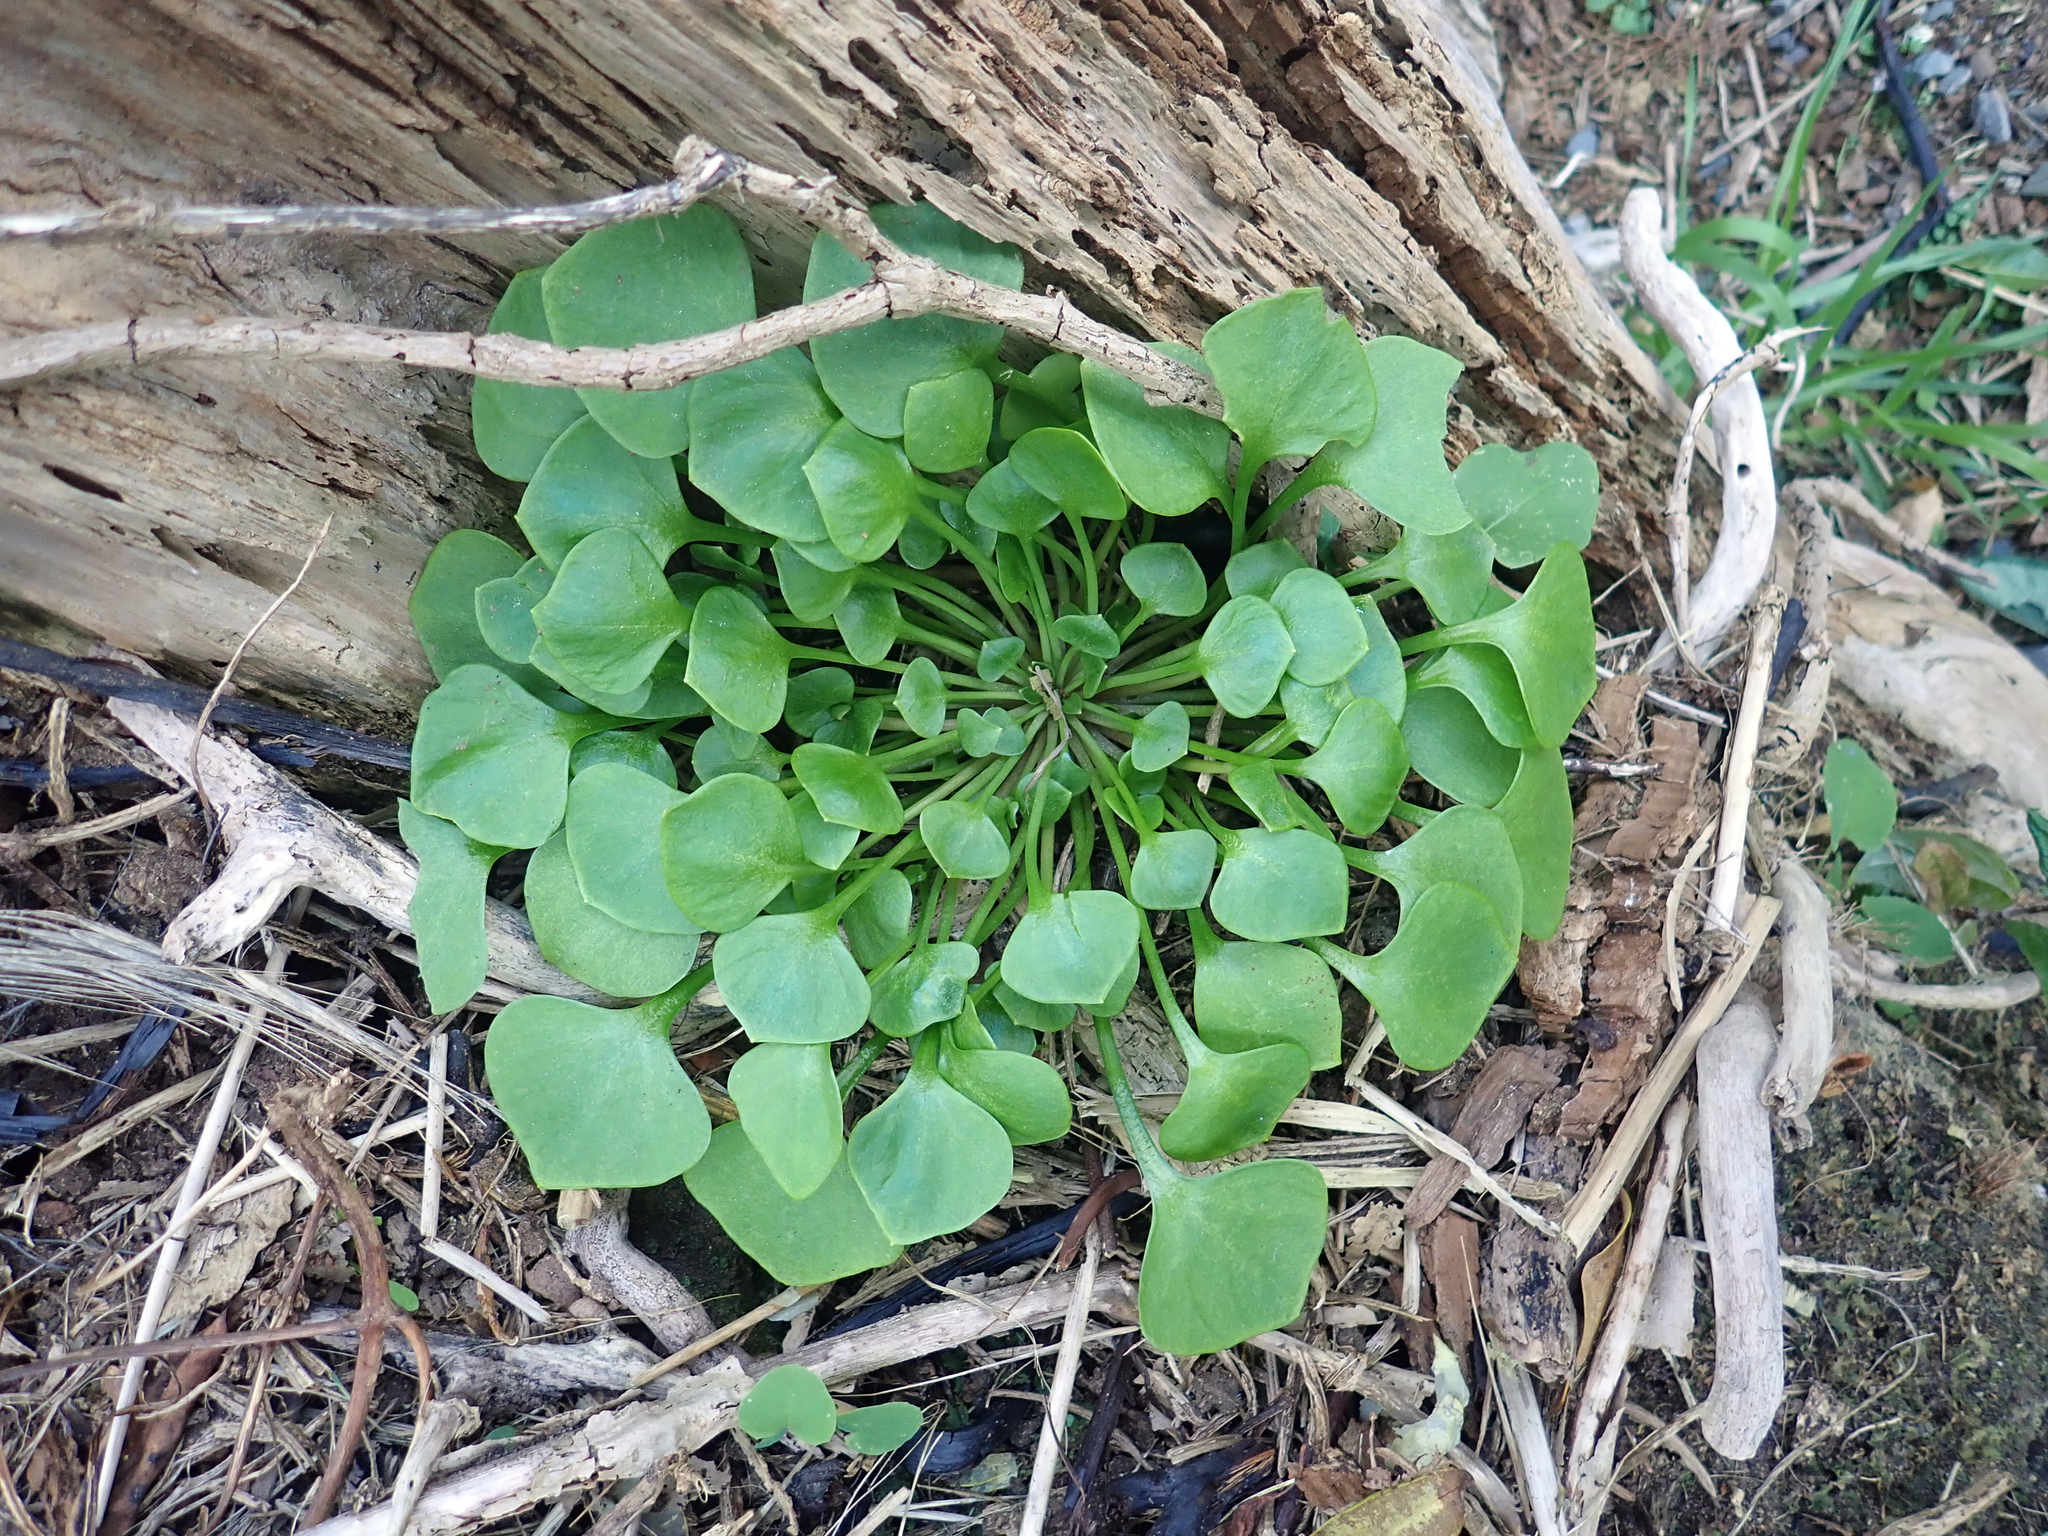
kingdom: Plantae
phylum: Tracheophyta
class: Magnoliopsida
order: Caryophyllales
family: Montiaceae
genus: Claytonia
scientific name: Claytonia perfoliata
